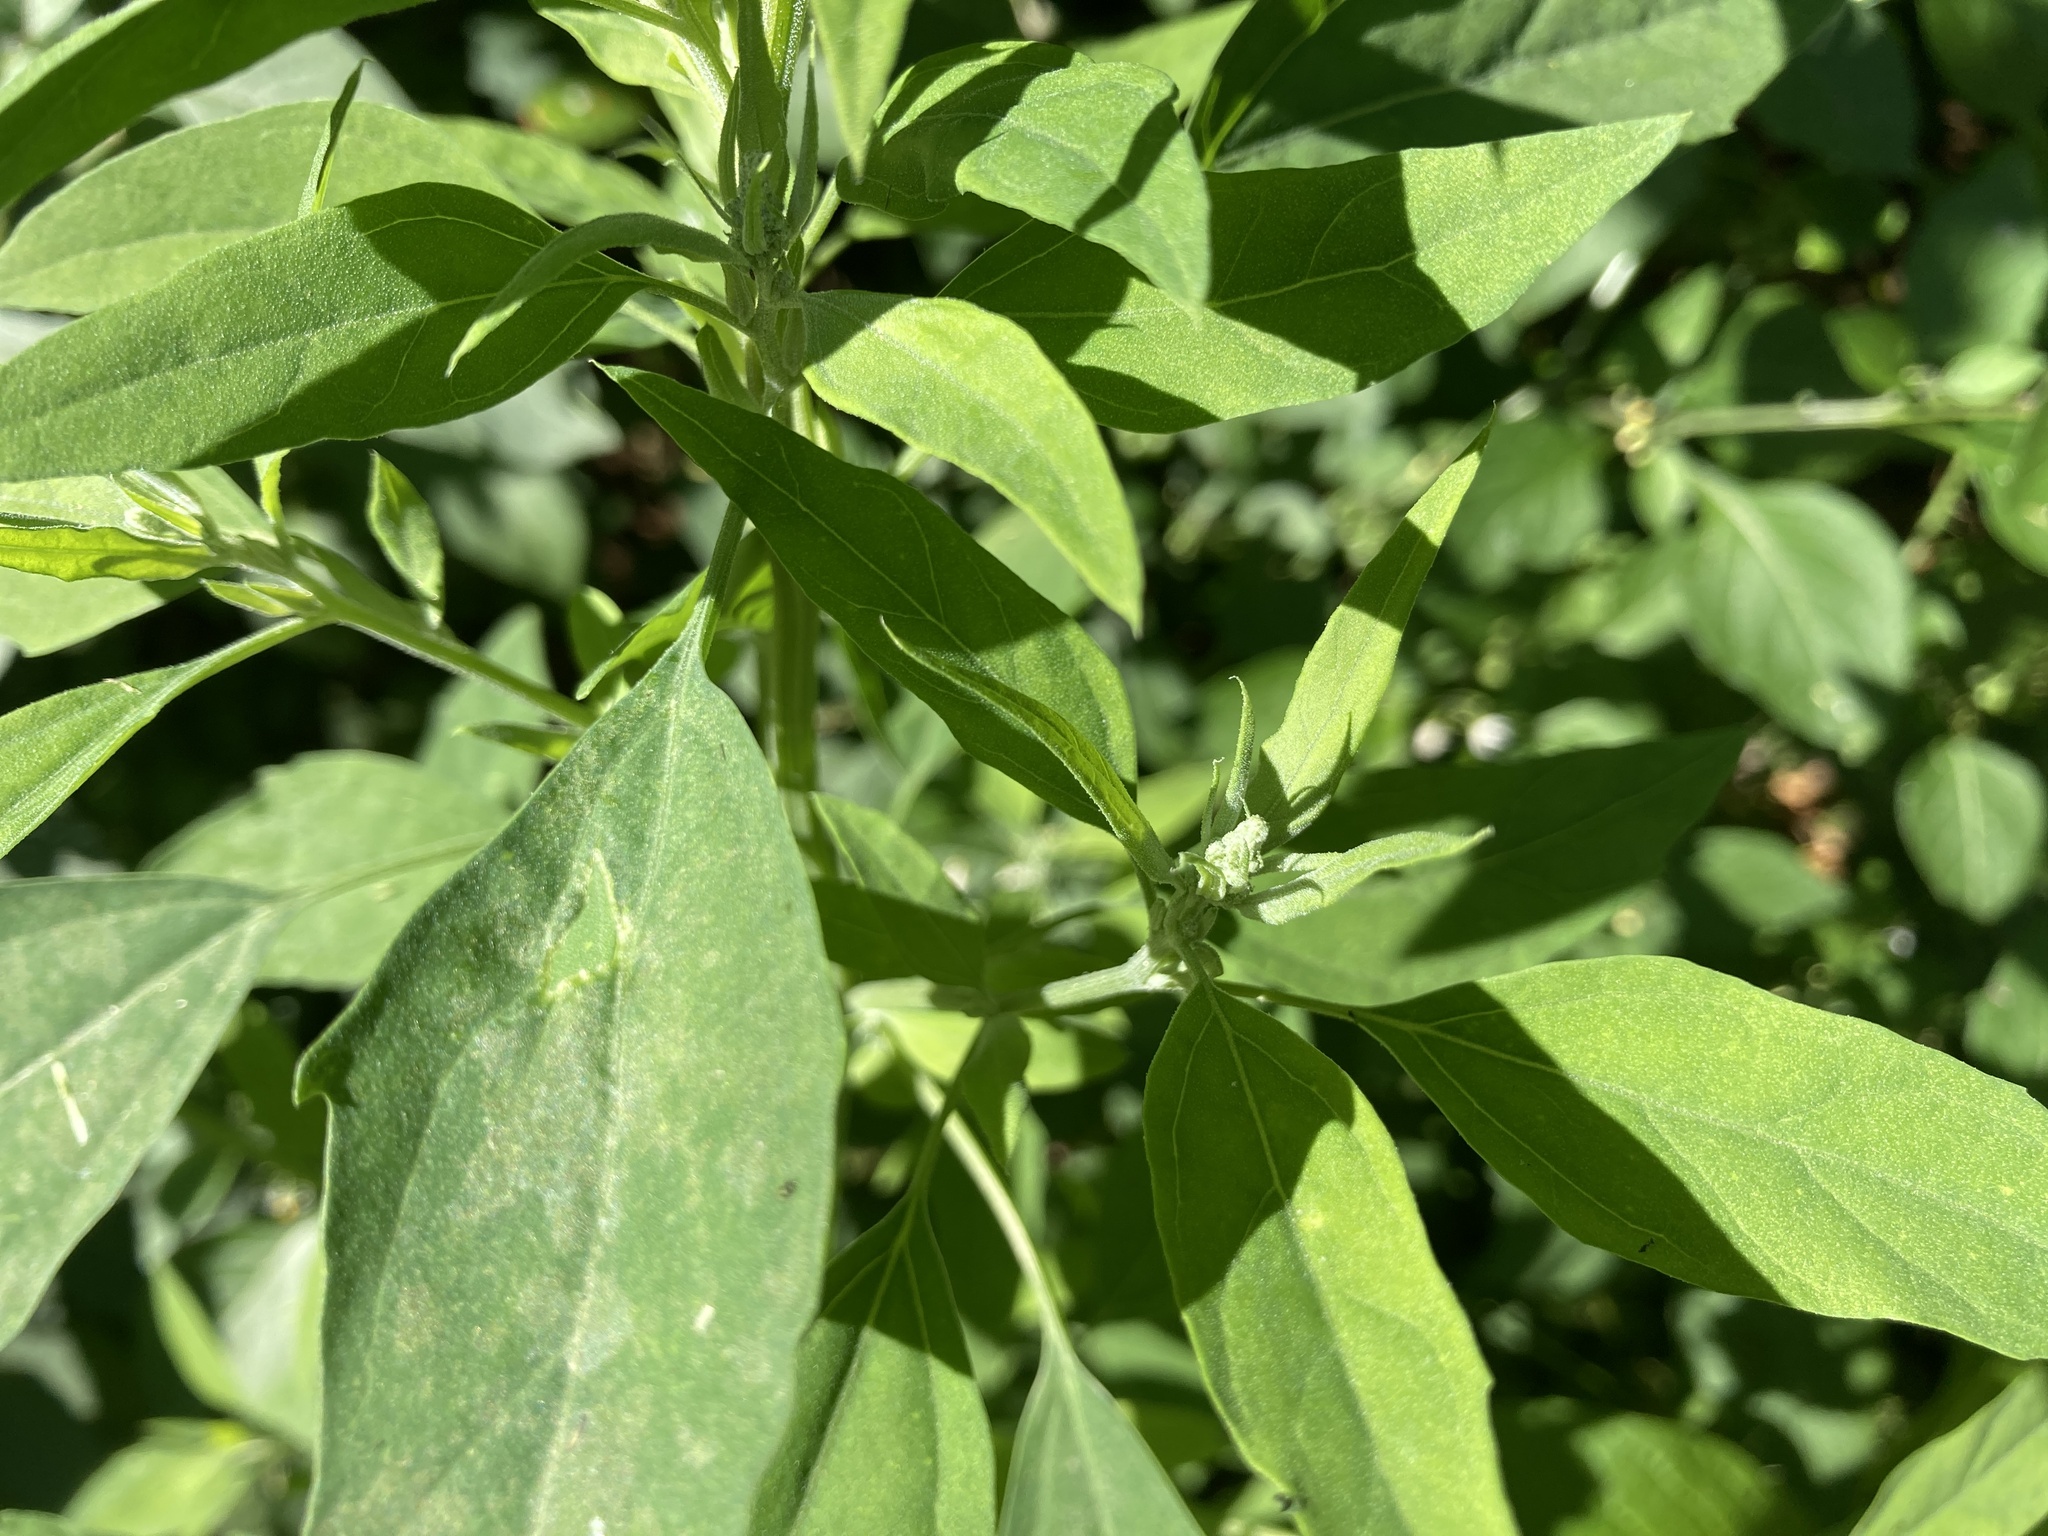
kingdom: Plantae
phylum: Tracheophyta
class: Magnoliopsida
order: Caryophyllales
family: Amaranthaceae
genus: Chenopodium
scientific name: Chenopodium album
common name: Fat-hen
